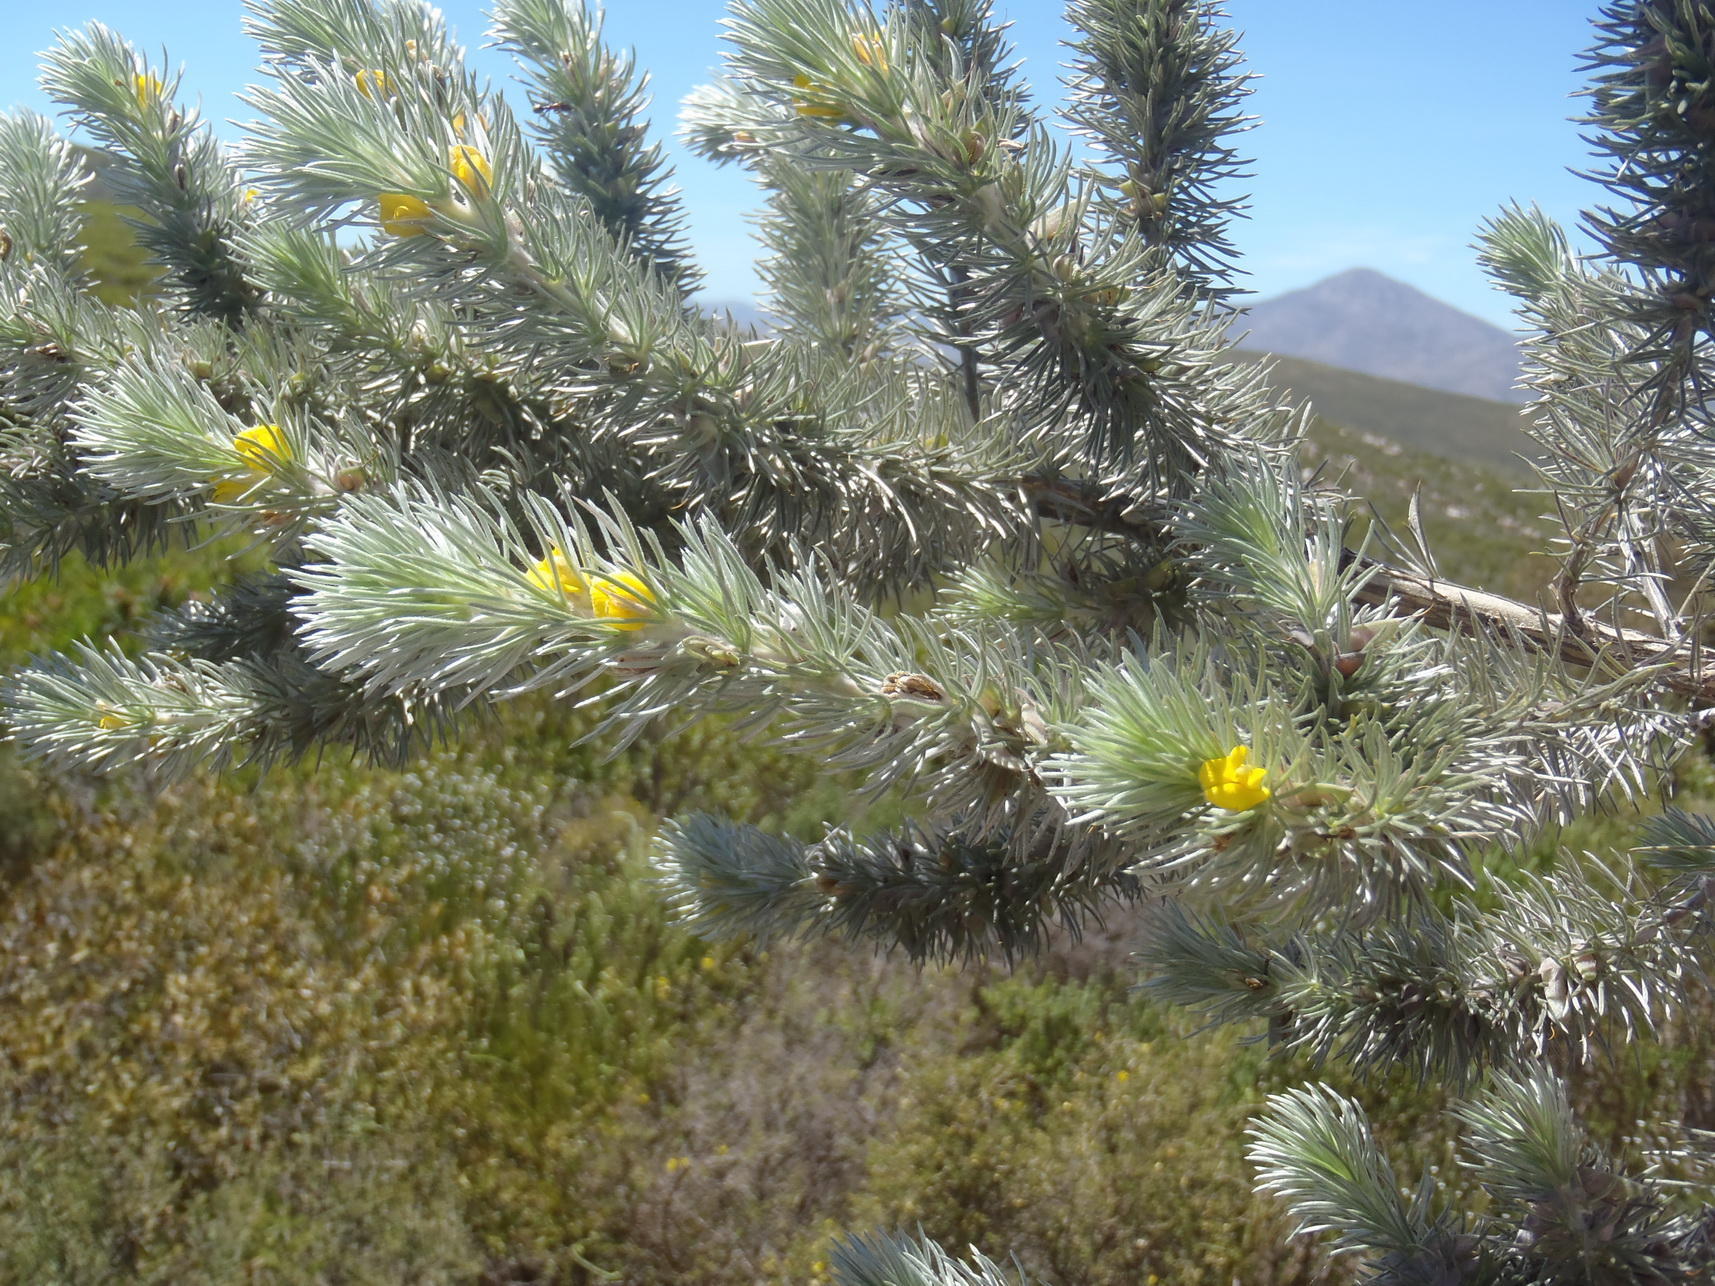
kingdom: Plantae
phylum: Tracheophyta
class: Magnoliopsida
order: Fabales
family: Fabaceae
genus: Aspalathus
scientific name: Aspalathus setacea
